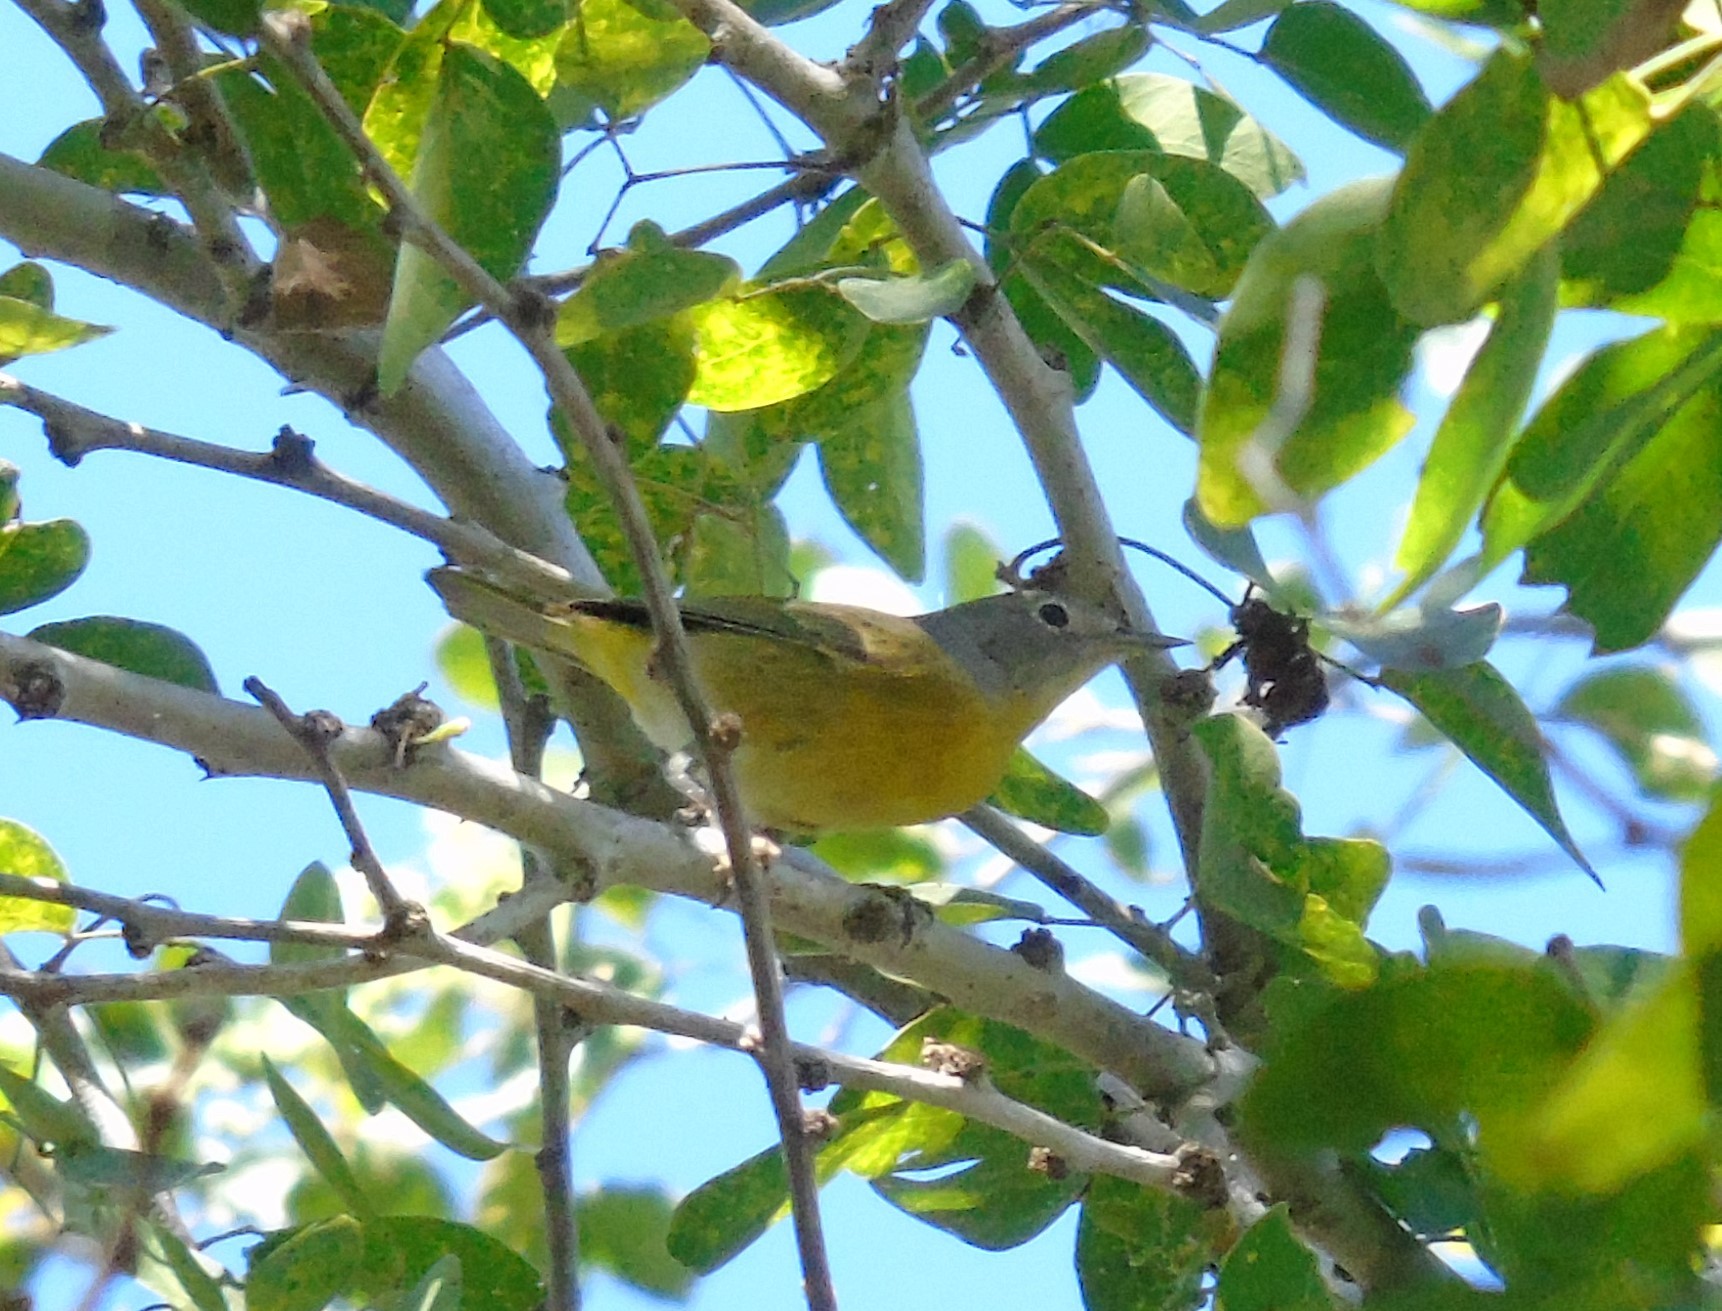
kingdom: Animalia
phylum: Chordata
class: Aves
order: Passeriformes
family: Parulidae
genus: Leiothlypis
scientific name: Leiothlypis ruficapilla
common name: Nashville warbler
